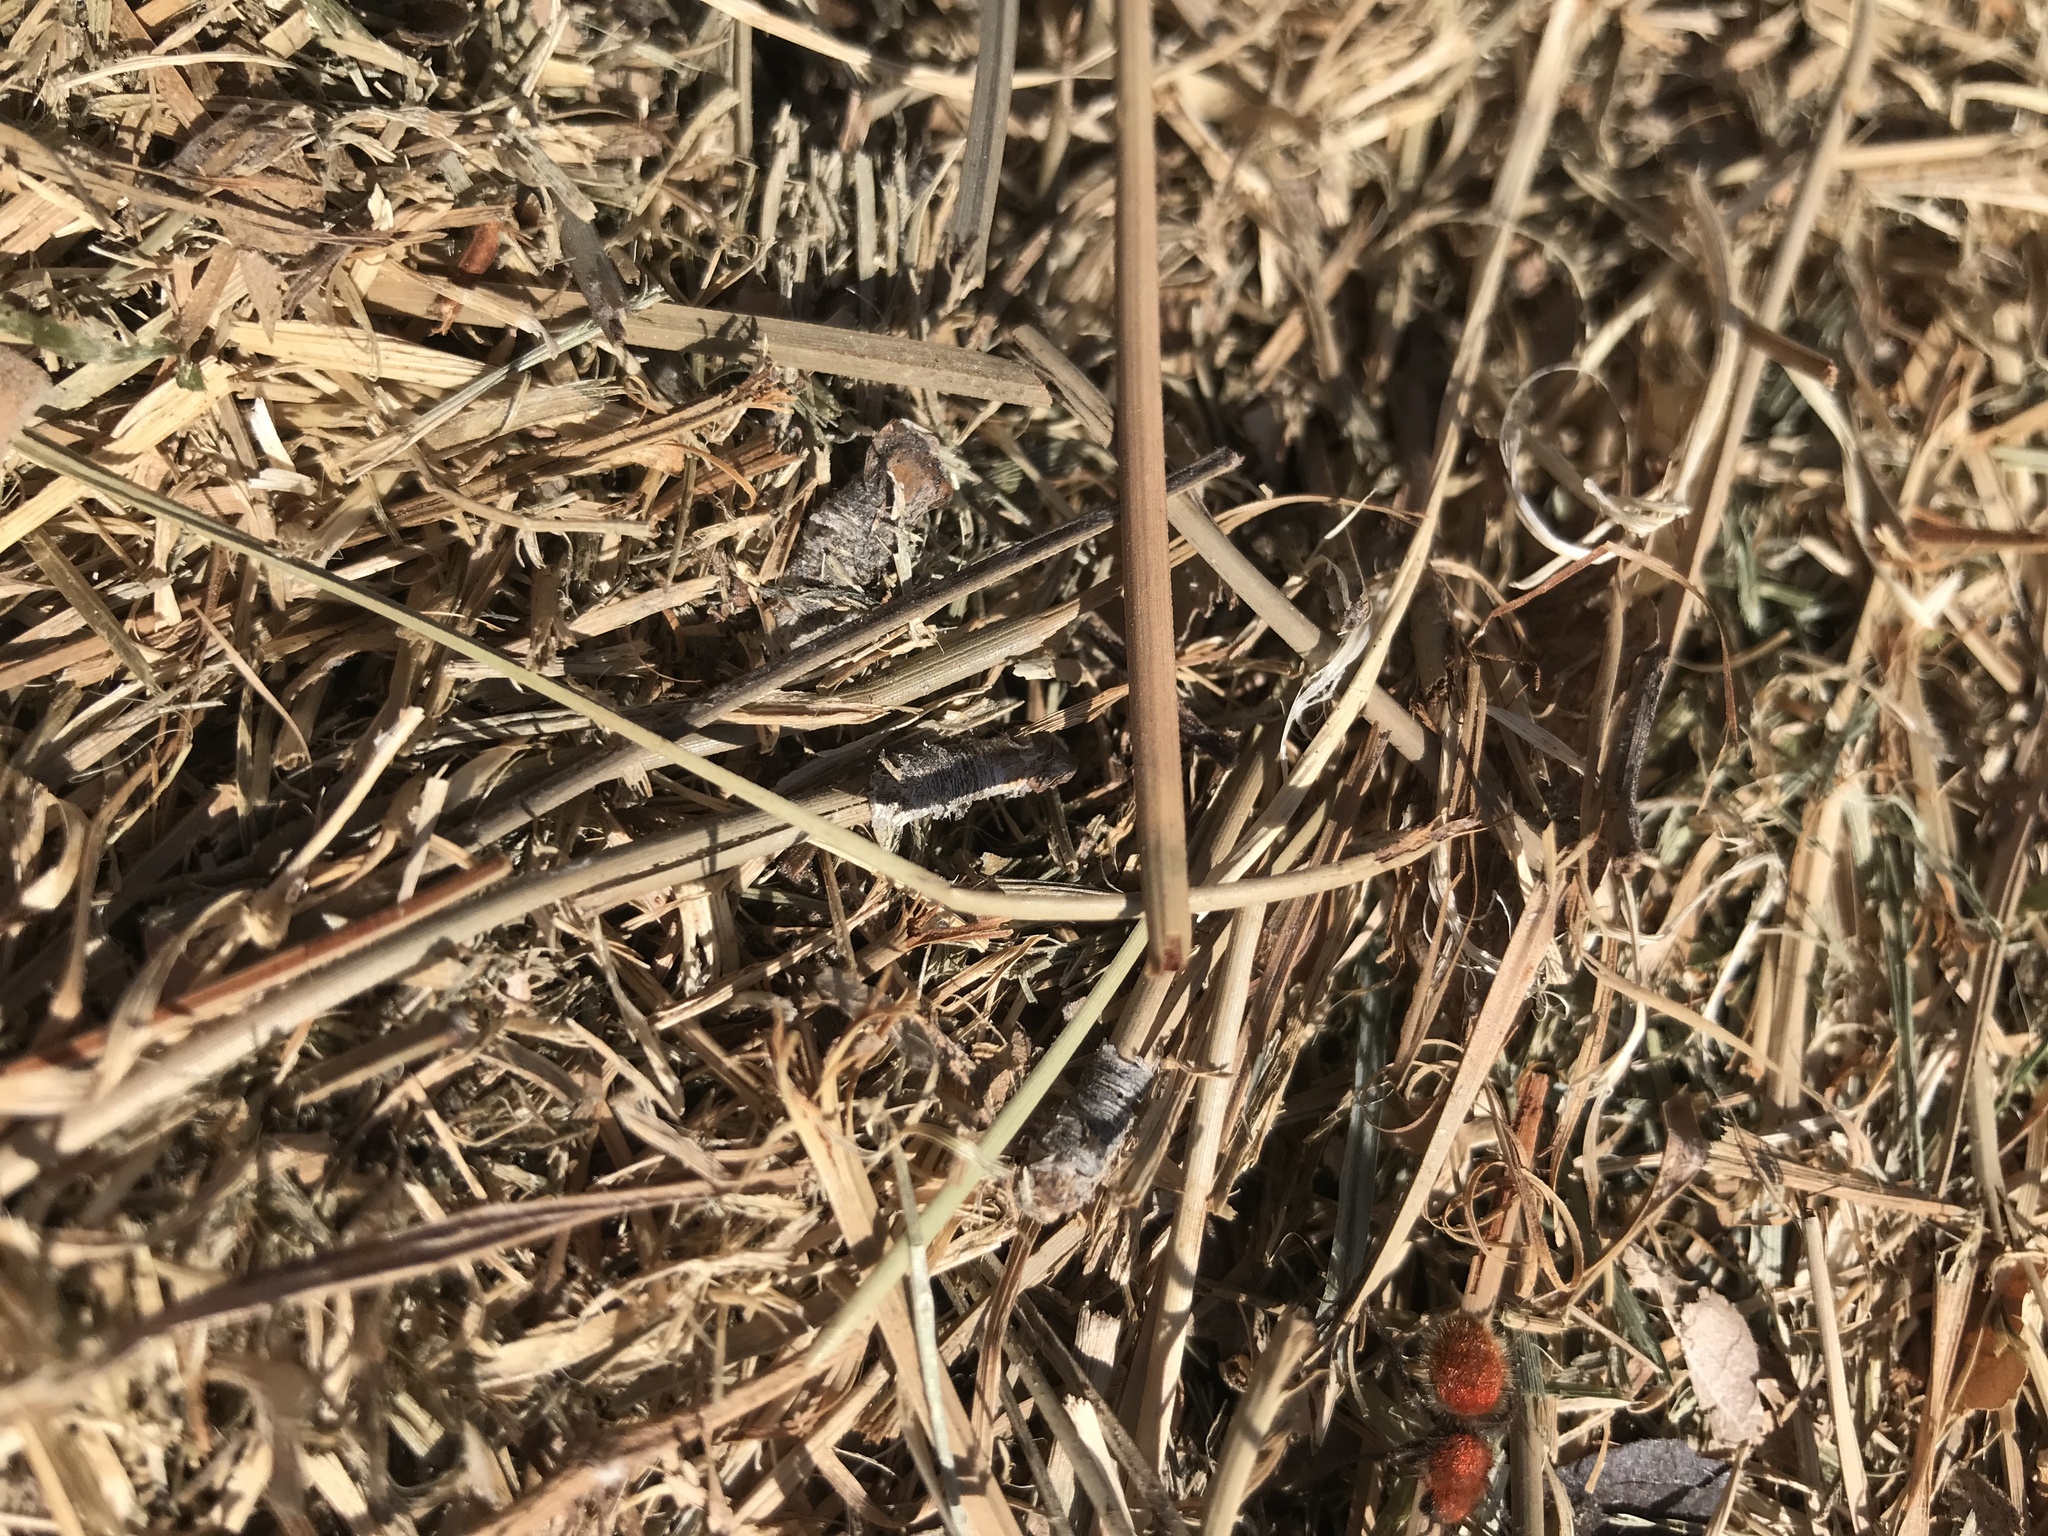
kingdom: Animalia
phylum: Arthropoda
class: Insecta
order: Hymenoptera
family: Mutillidae
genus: Dasymutilla
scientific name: Dasymutilla vestita
